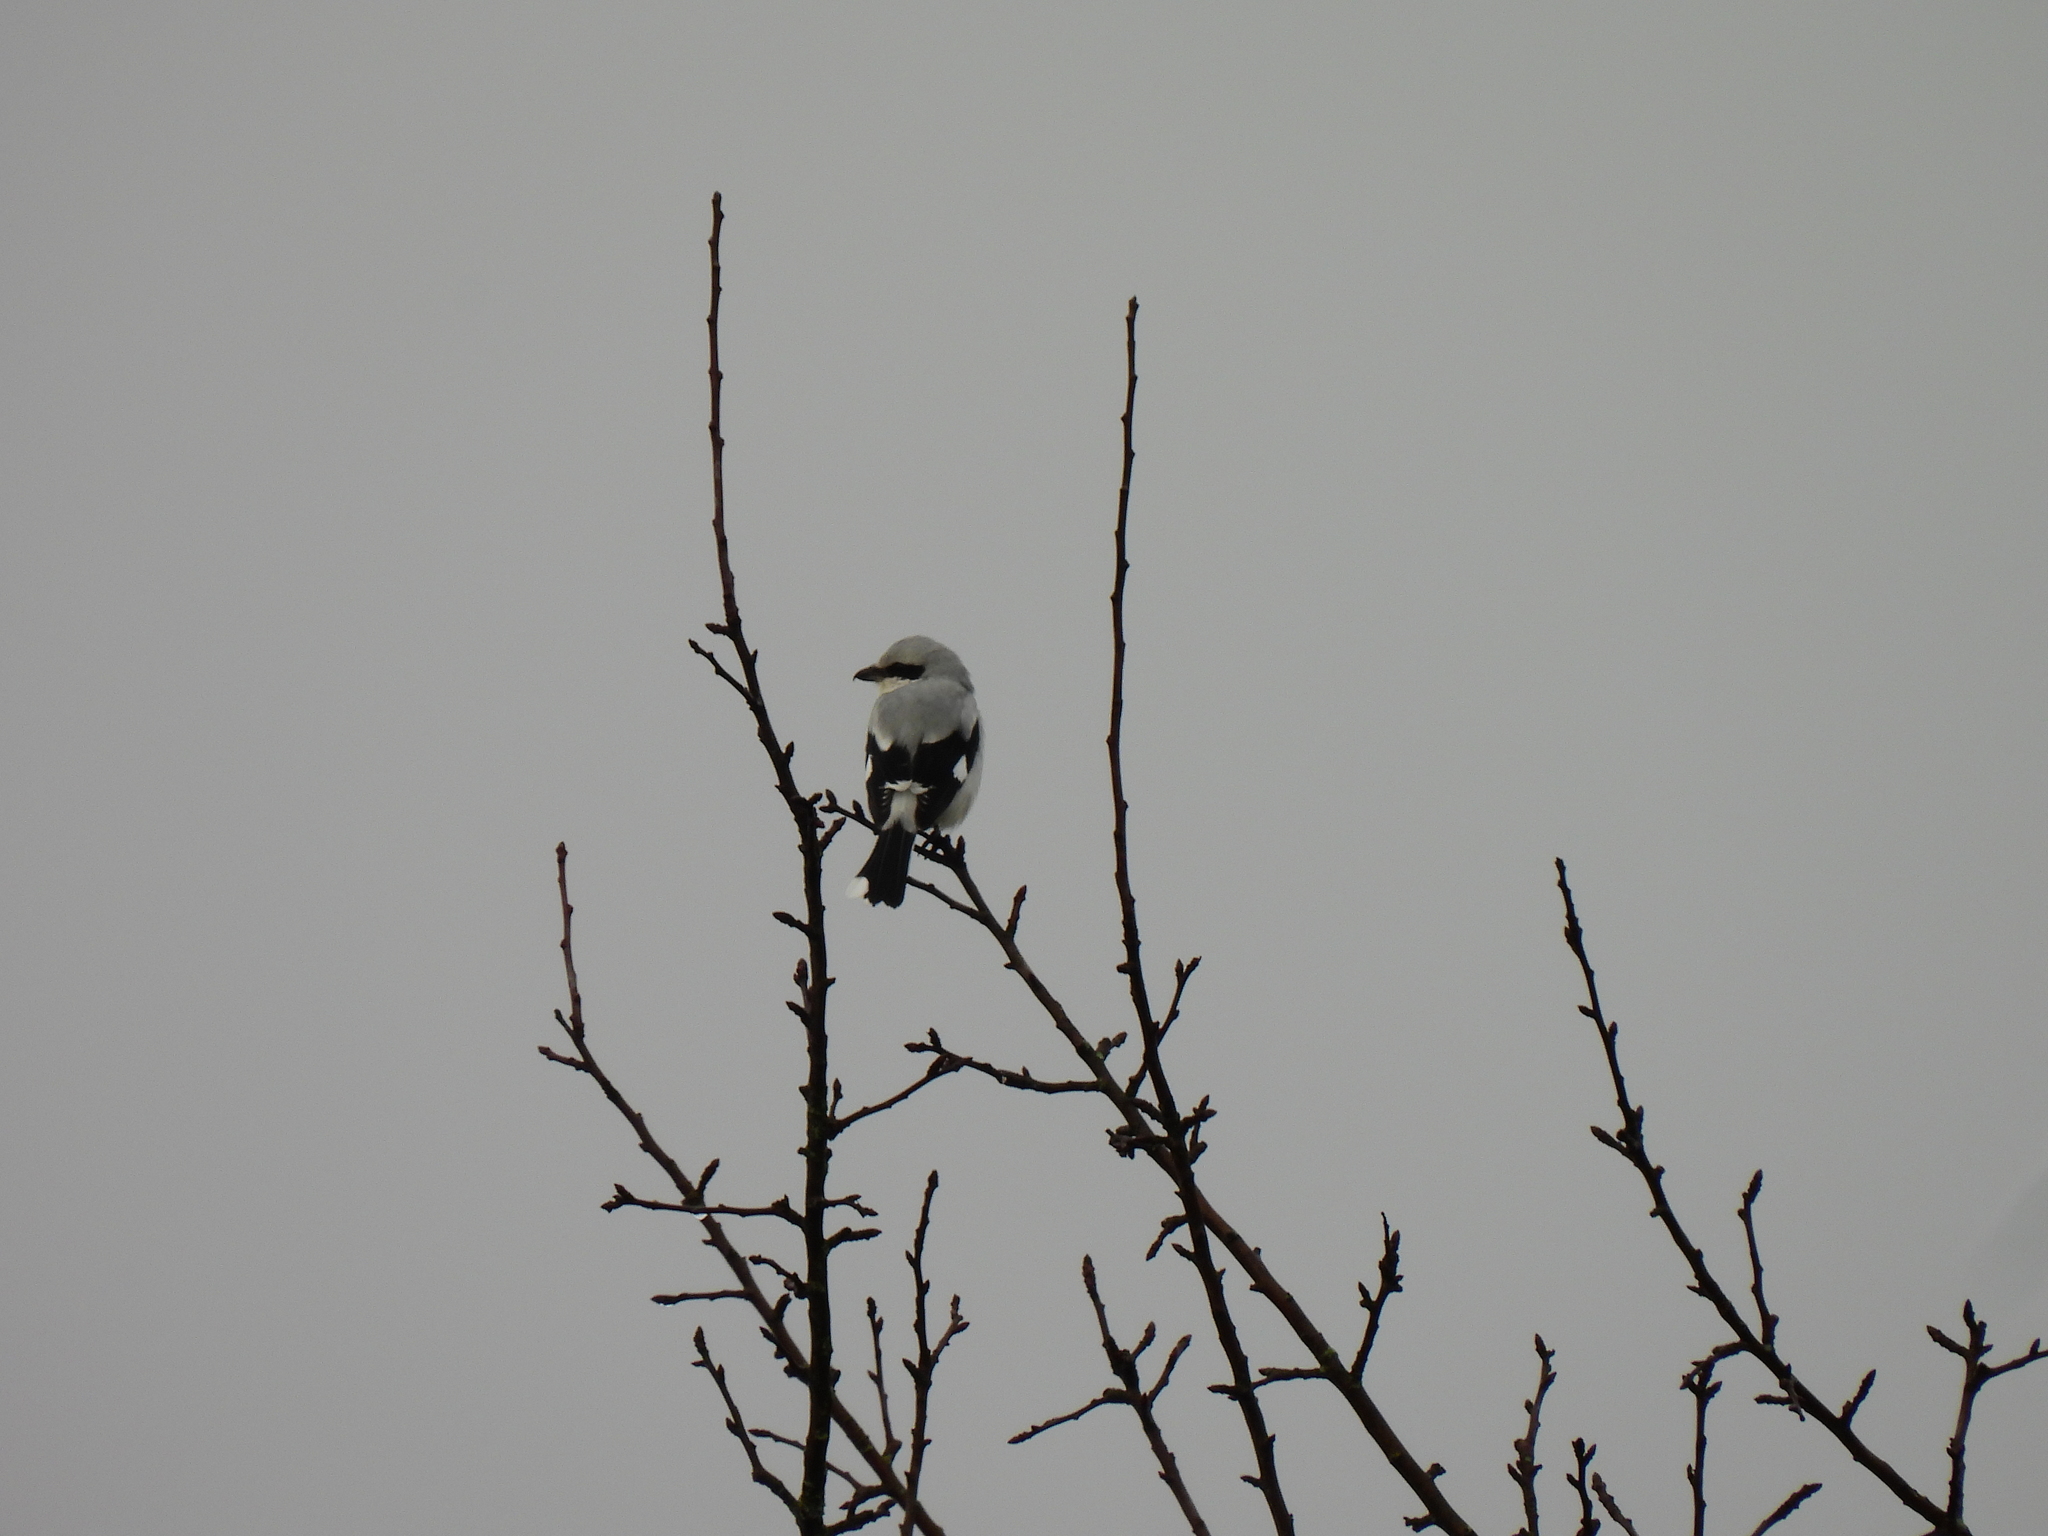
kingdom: Animalia
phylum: Chordata
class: Aves
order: Passeriformes
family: Laniidae
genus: Lanius
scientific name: Lanius excubitor
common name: Great grey shrike
